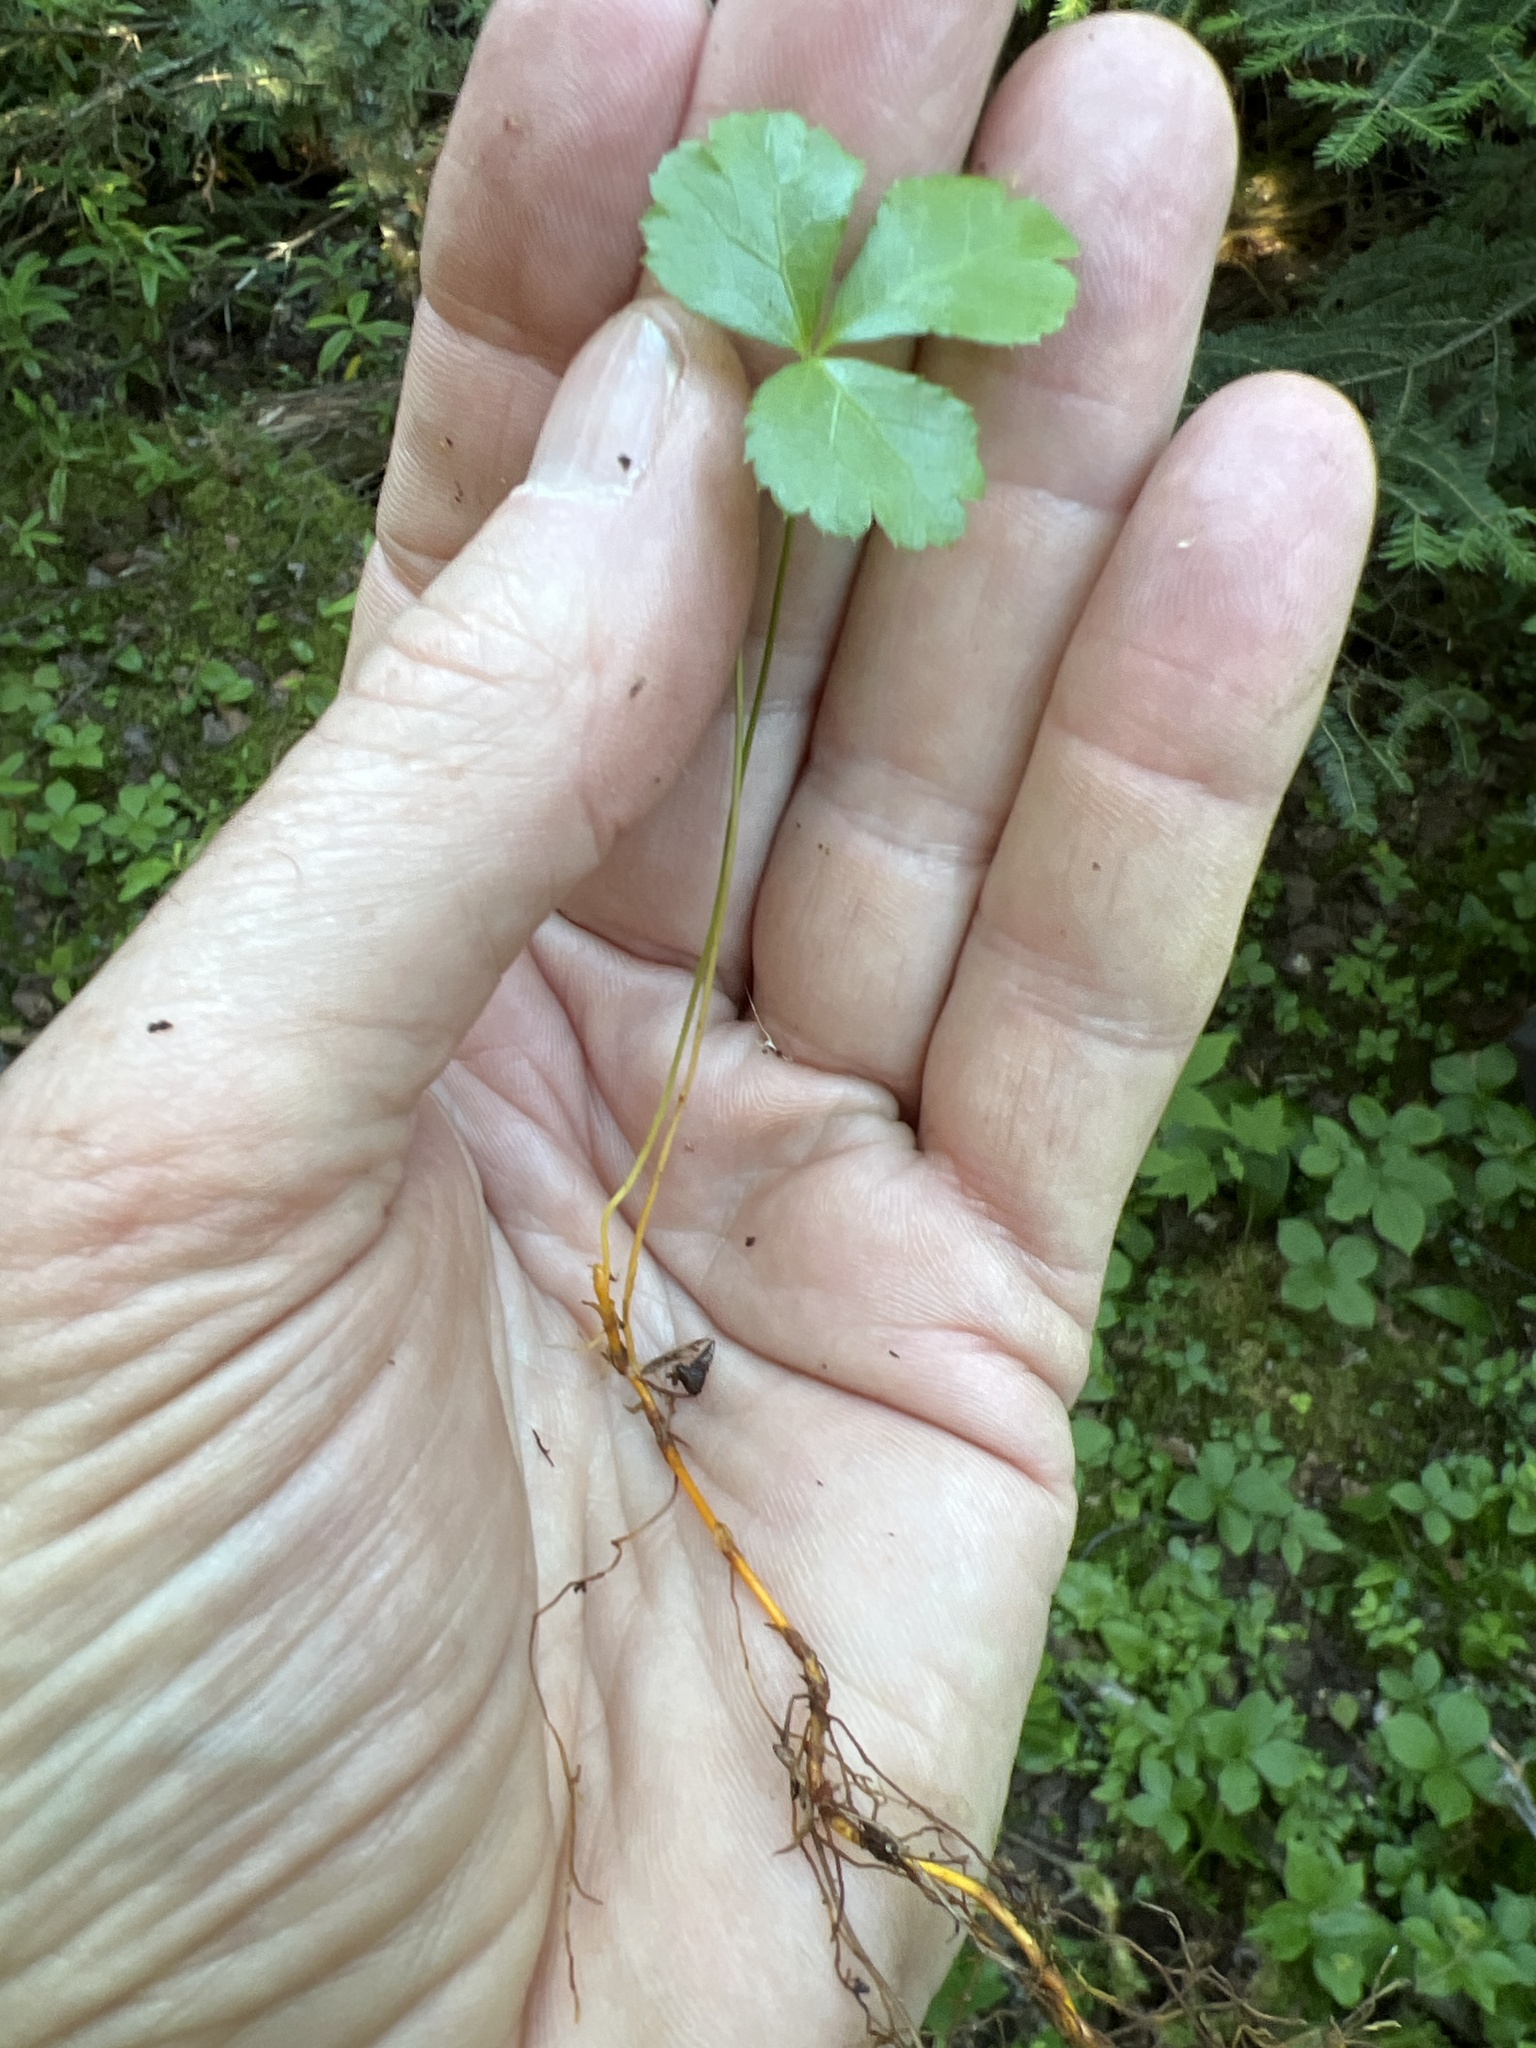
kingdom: Plantae
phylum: Tracheophyta
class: Magnoliopsida
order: Ranunculales
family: Ranunculaceae
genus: Coptis
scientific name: Coptis trifolia
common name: Canker-root
